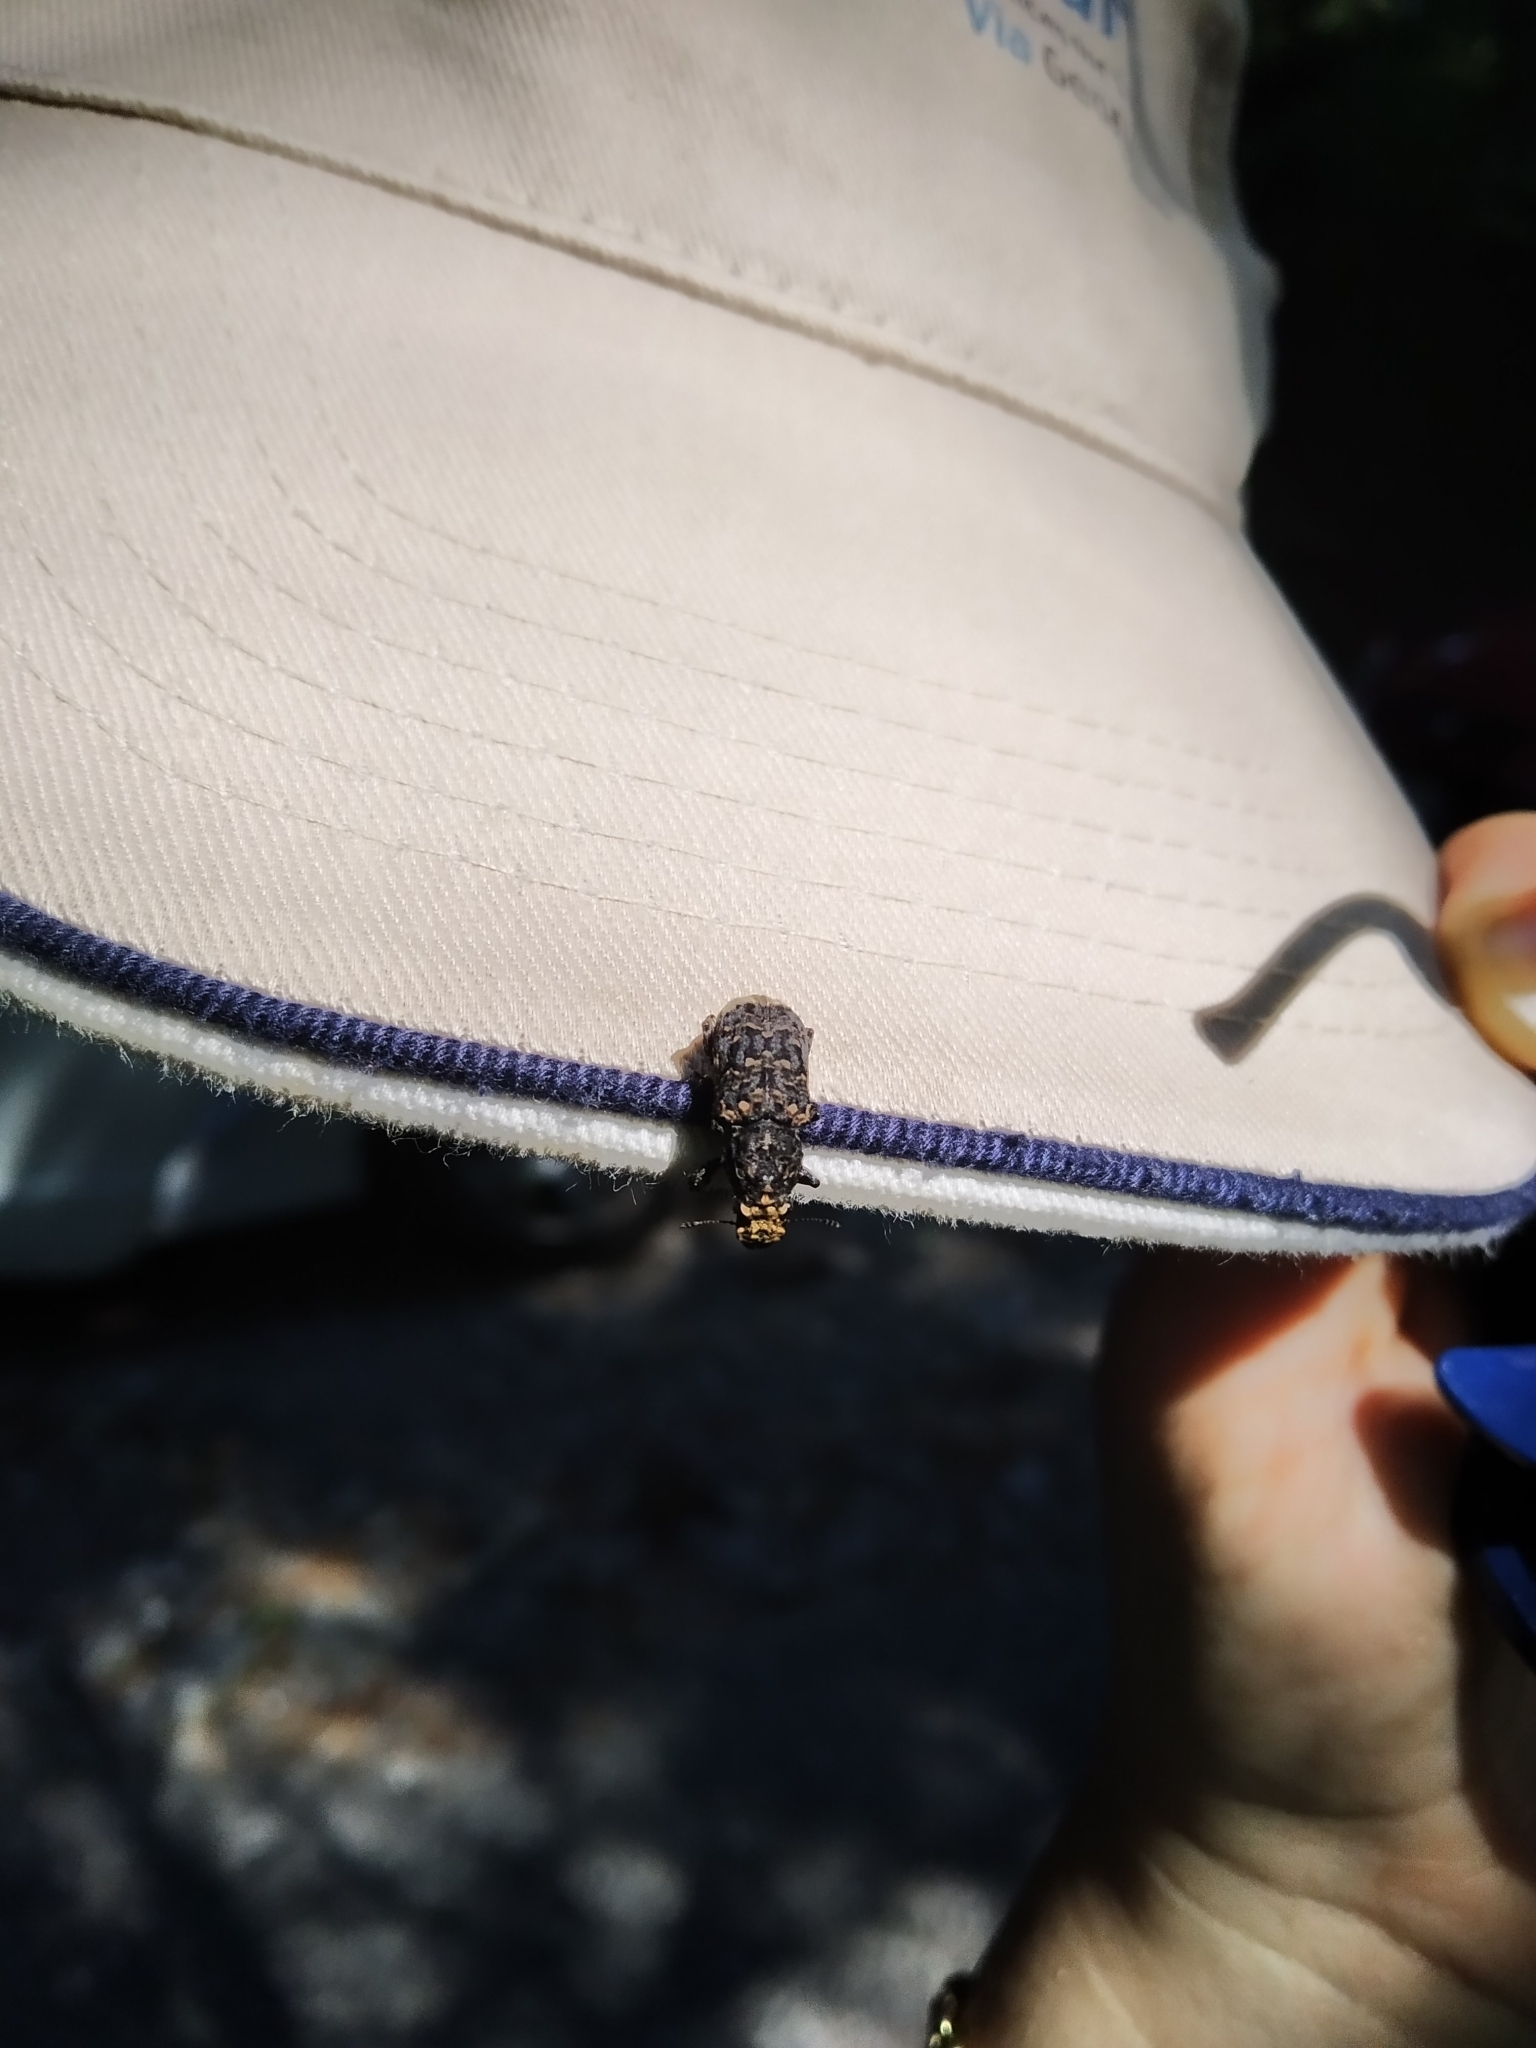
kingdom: Animalia
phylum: Arthropoda
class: Insecta
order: Coleoptera
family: Anthribidae
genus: Platyrhinus
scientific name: Platyrhinus resinosus
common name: Cramp-ball fungus weevil
